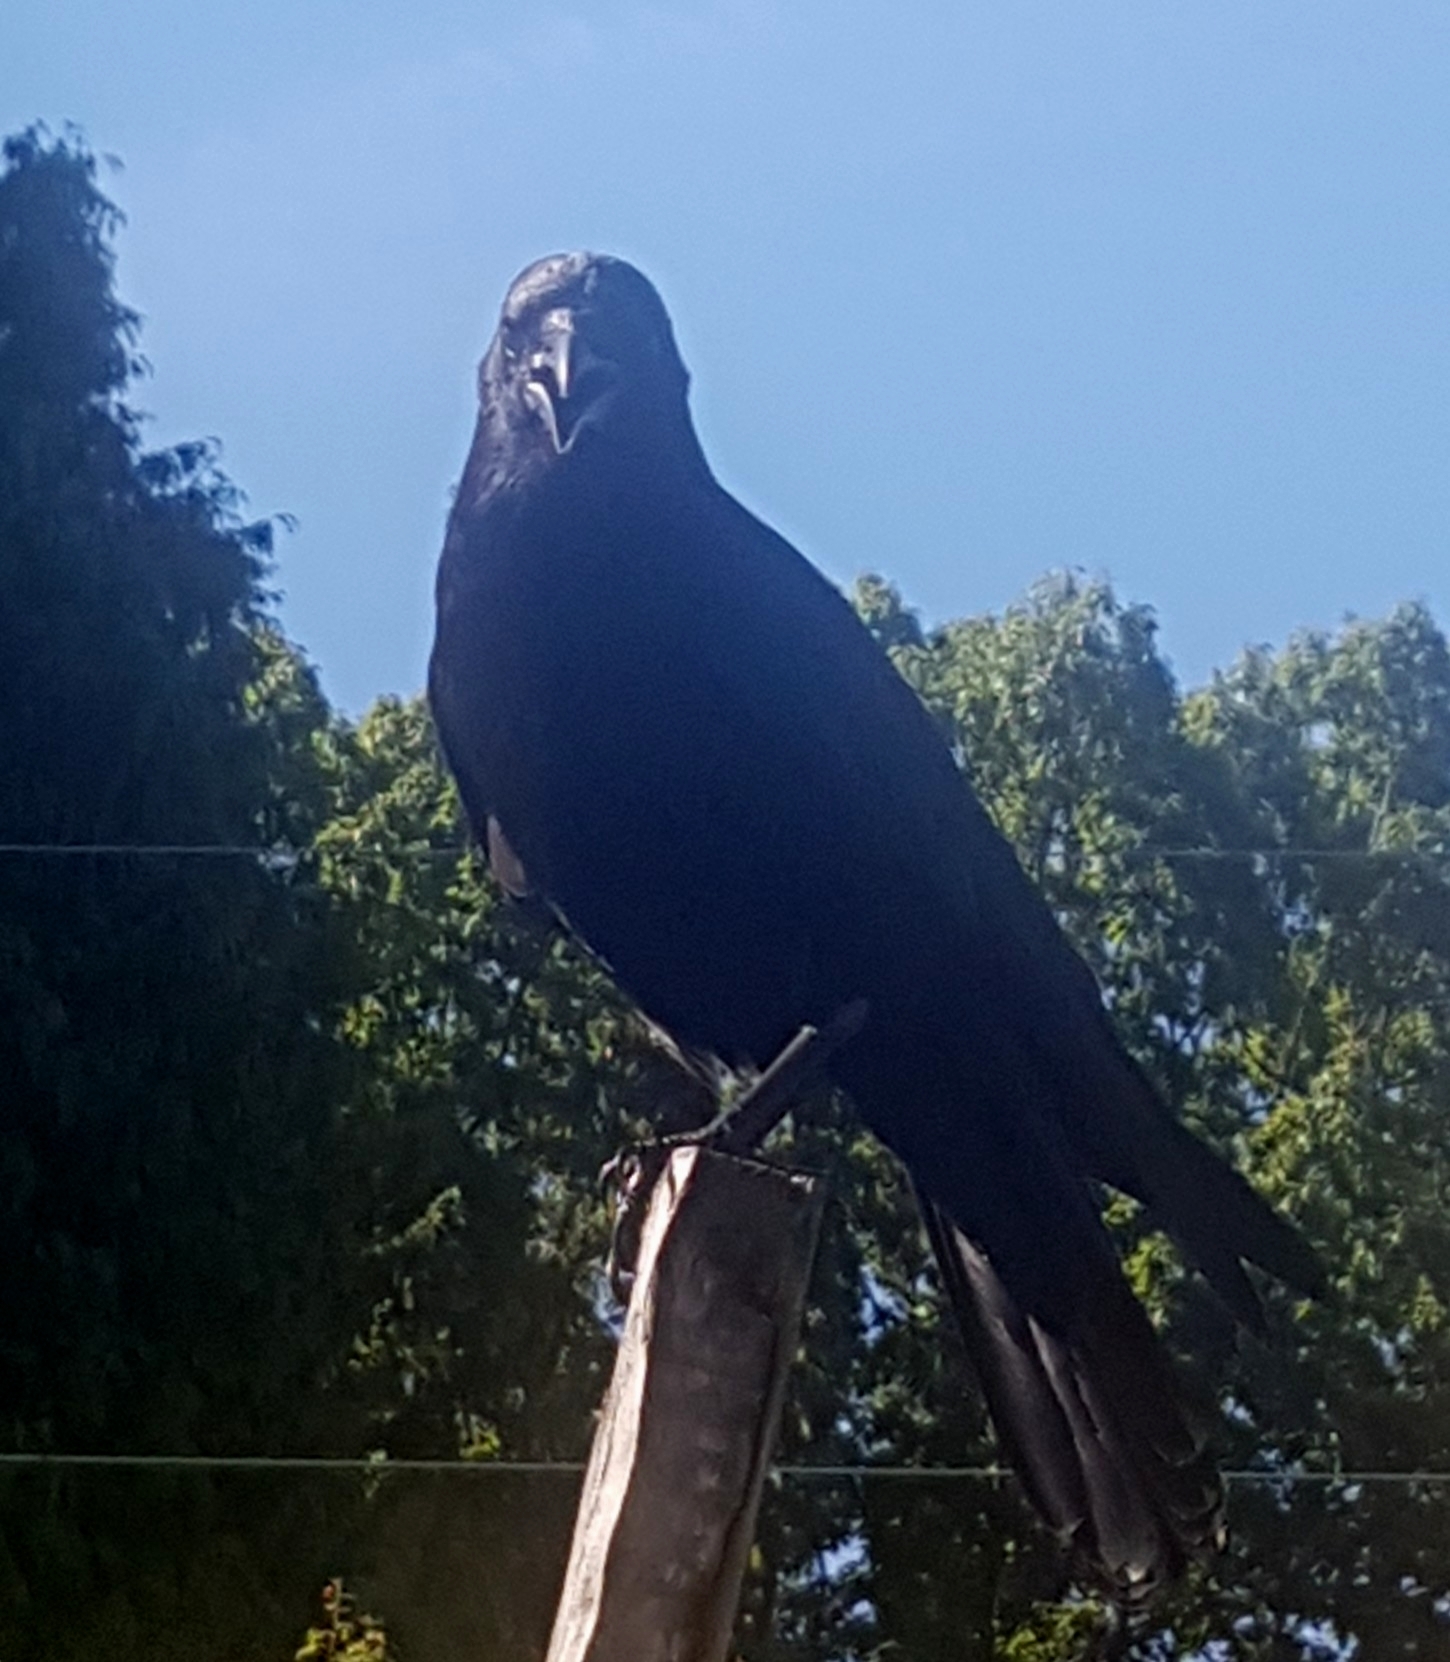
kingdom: Animalia
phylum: Chordata
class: Aves
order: Passeriformes
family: Corvidae
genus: Corvus
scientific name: Corvus brachyrhynchos
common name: American crow
